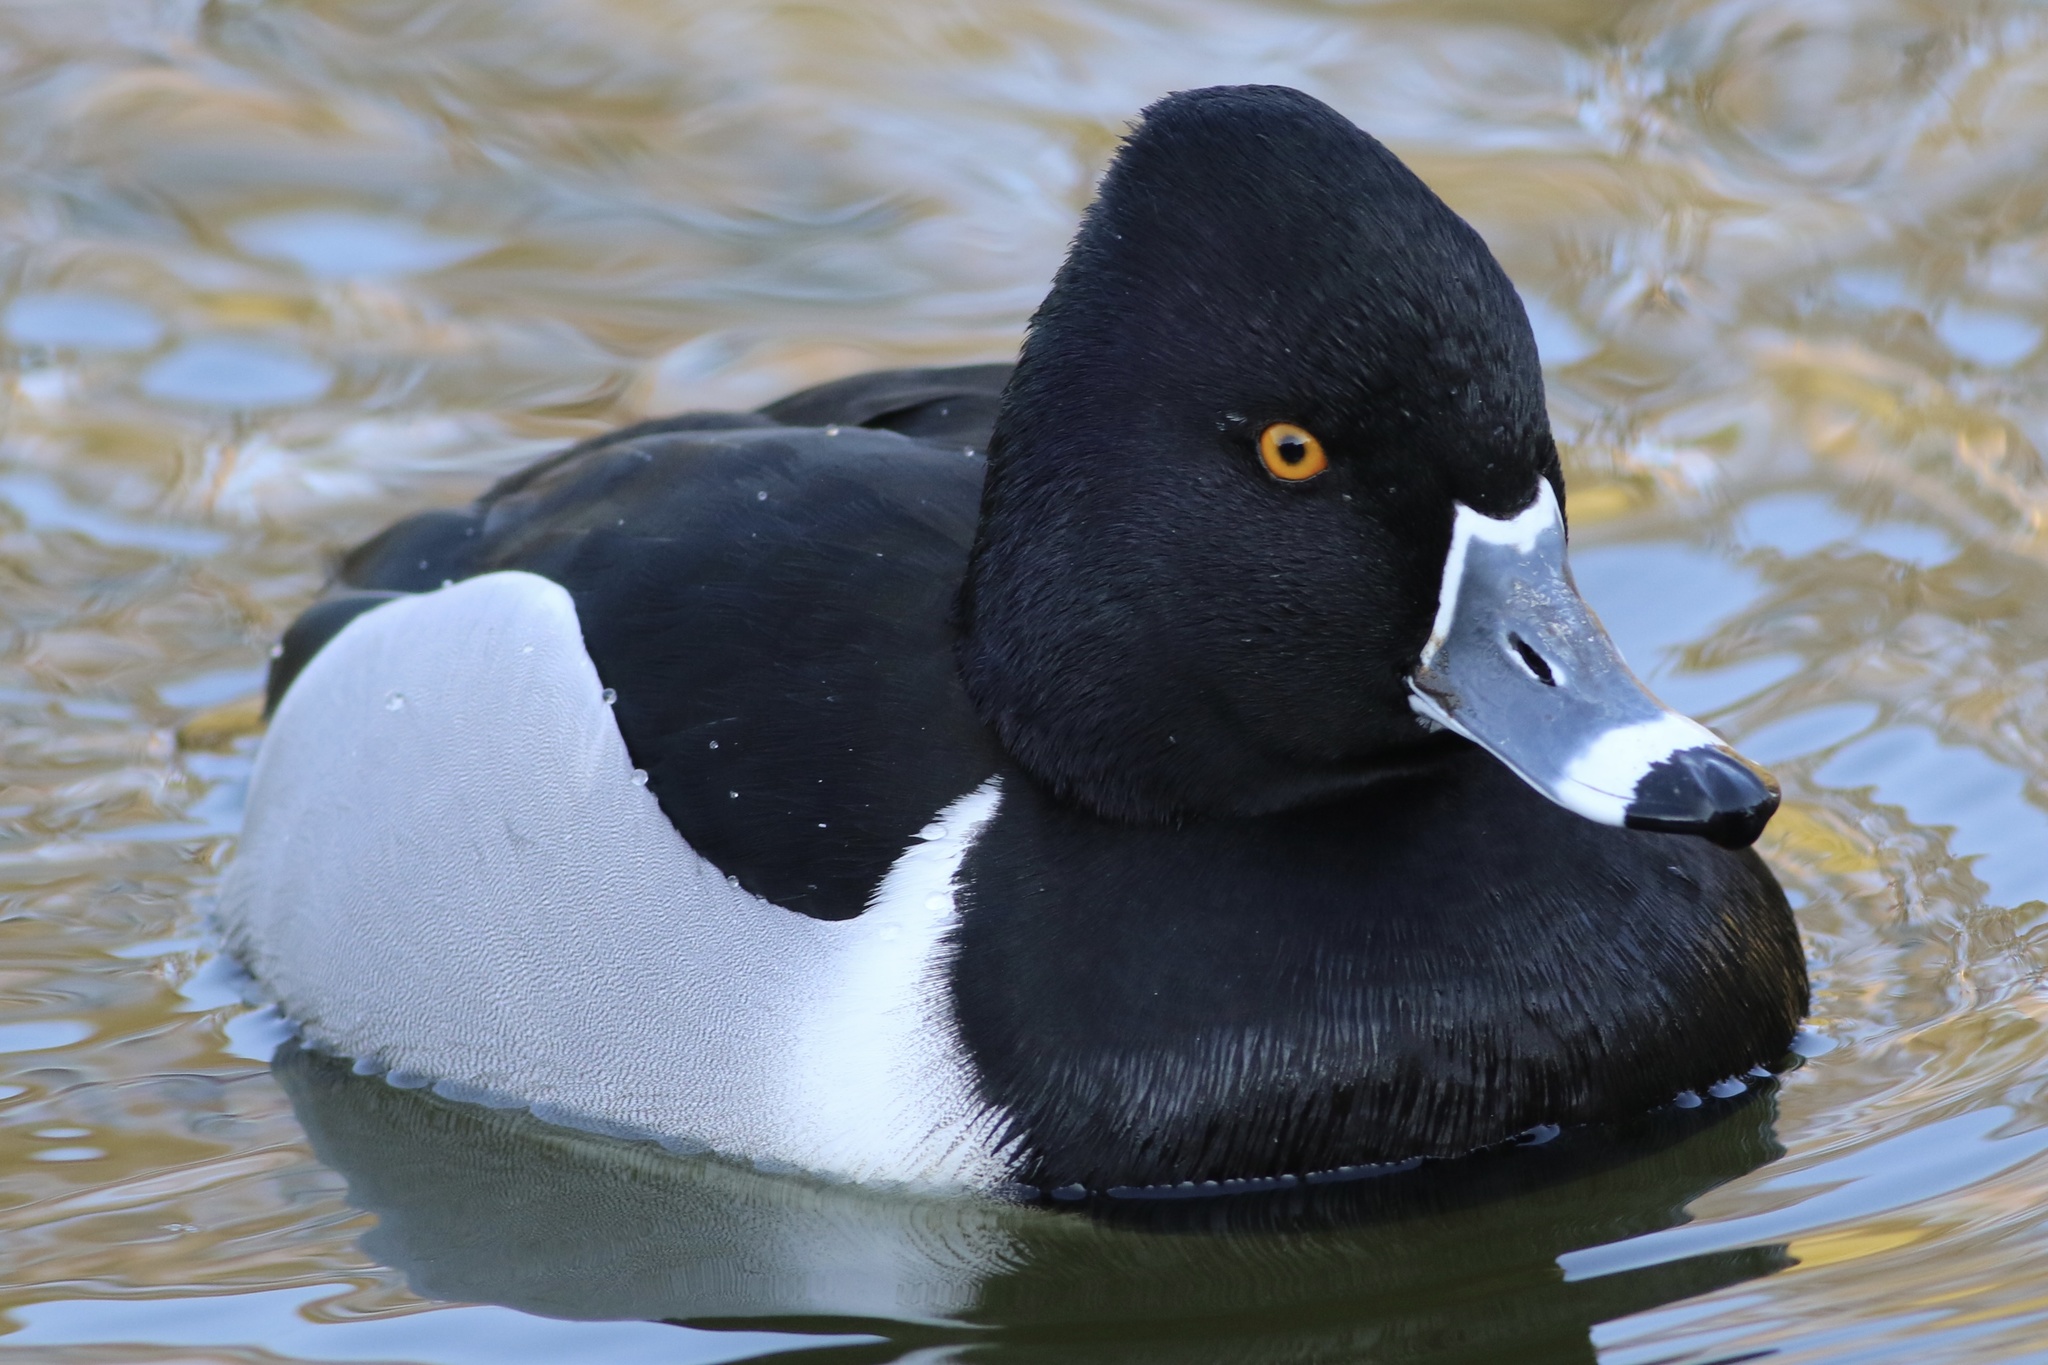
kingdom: Animalia
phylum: Chordata
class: Aves
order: Anseriformes
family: Anatidae
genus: Aythya
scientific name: Aythya collaris
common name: Ring-necked duck
